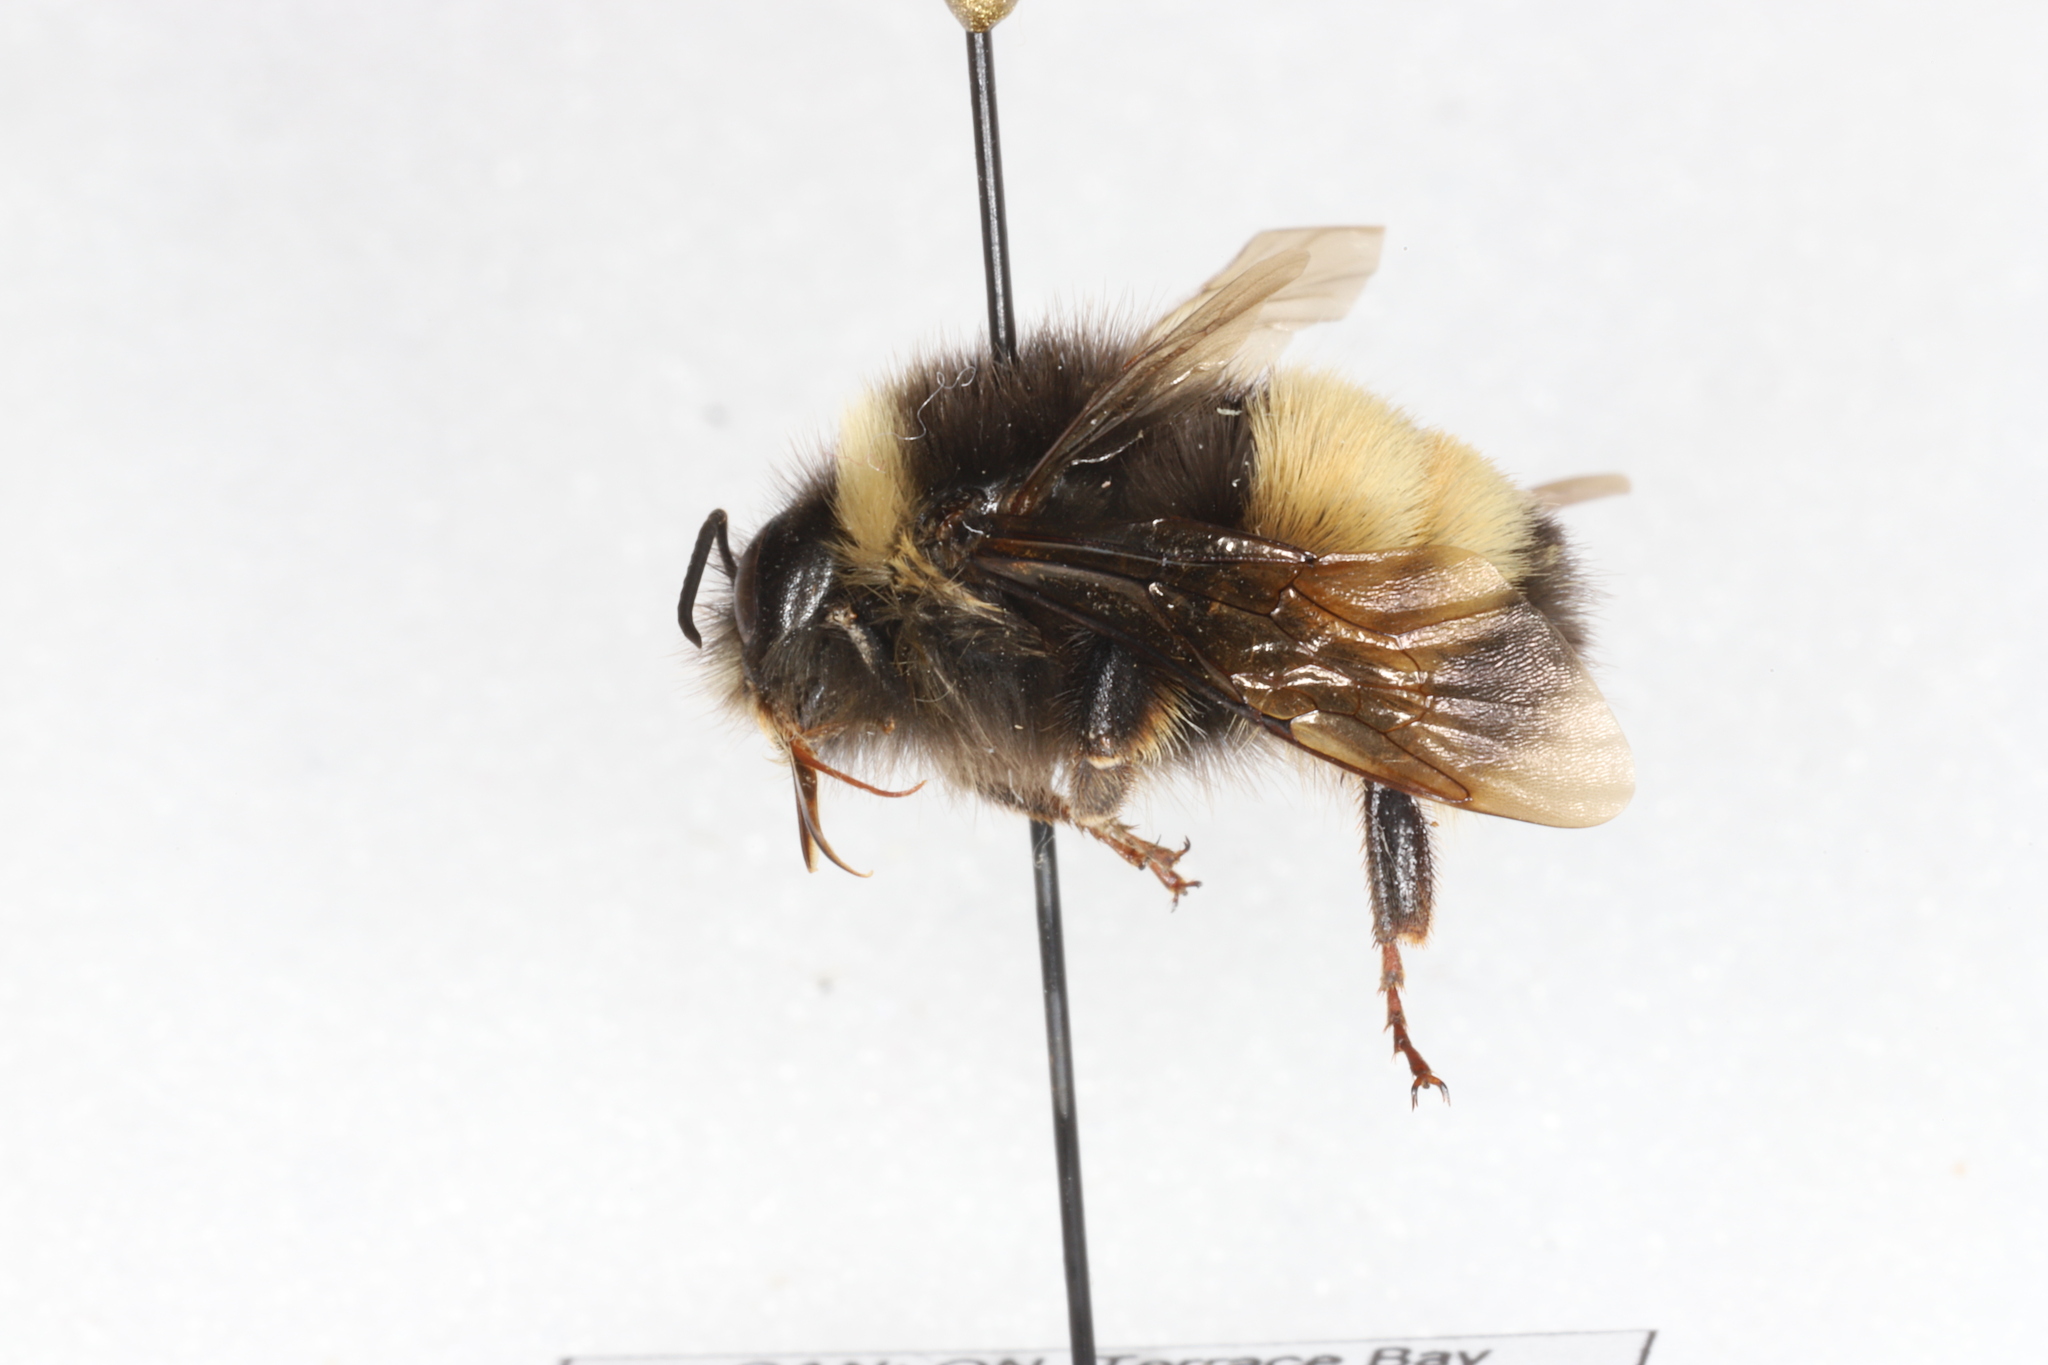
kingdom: Animalia
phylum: Arthropoda
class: Insecta
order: Hymenoptera
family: Apidae
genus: Bombus
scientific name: Bombus terricola
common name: Yellow-banded bumble bee
